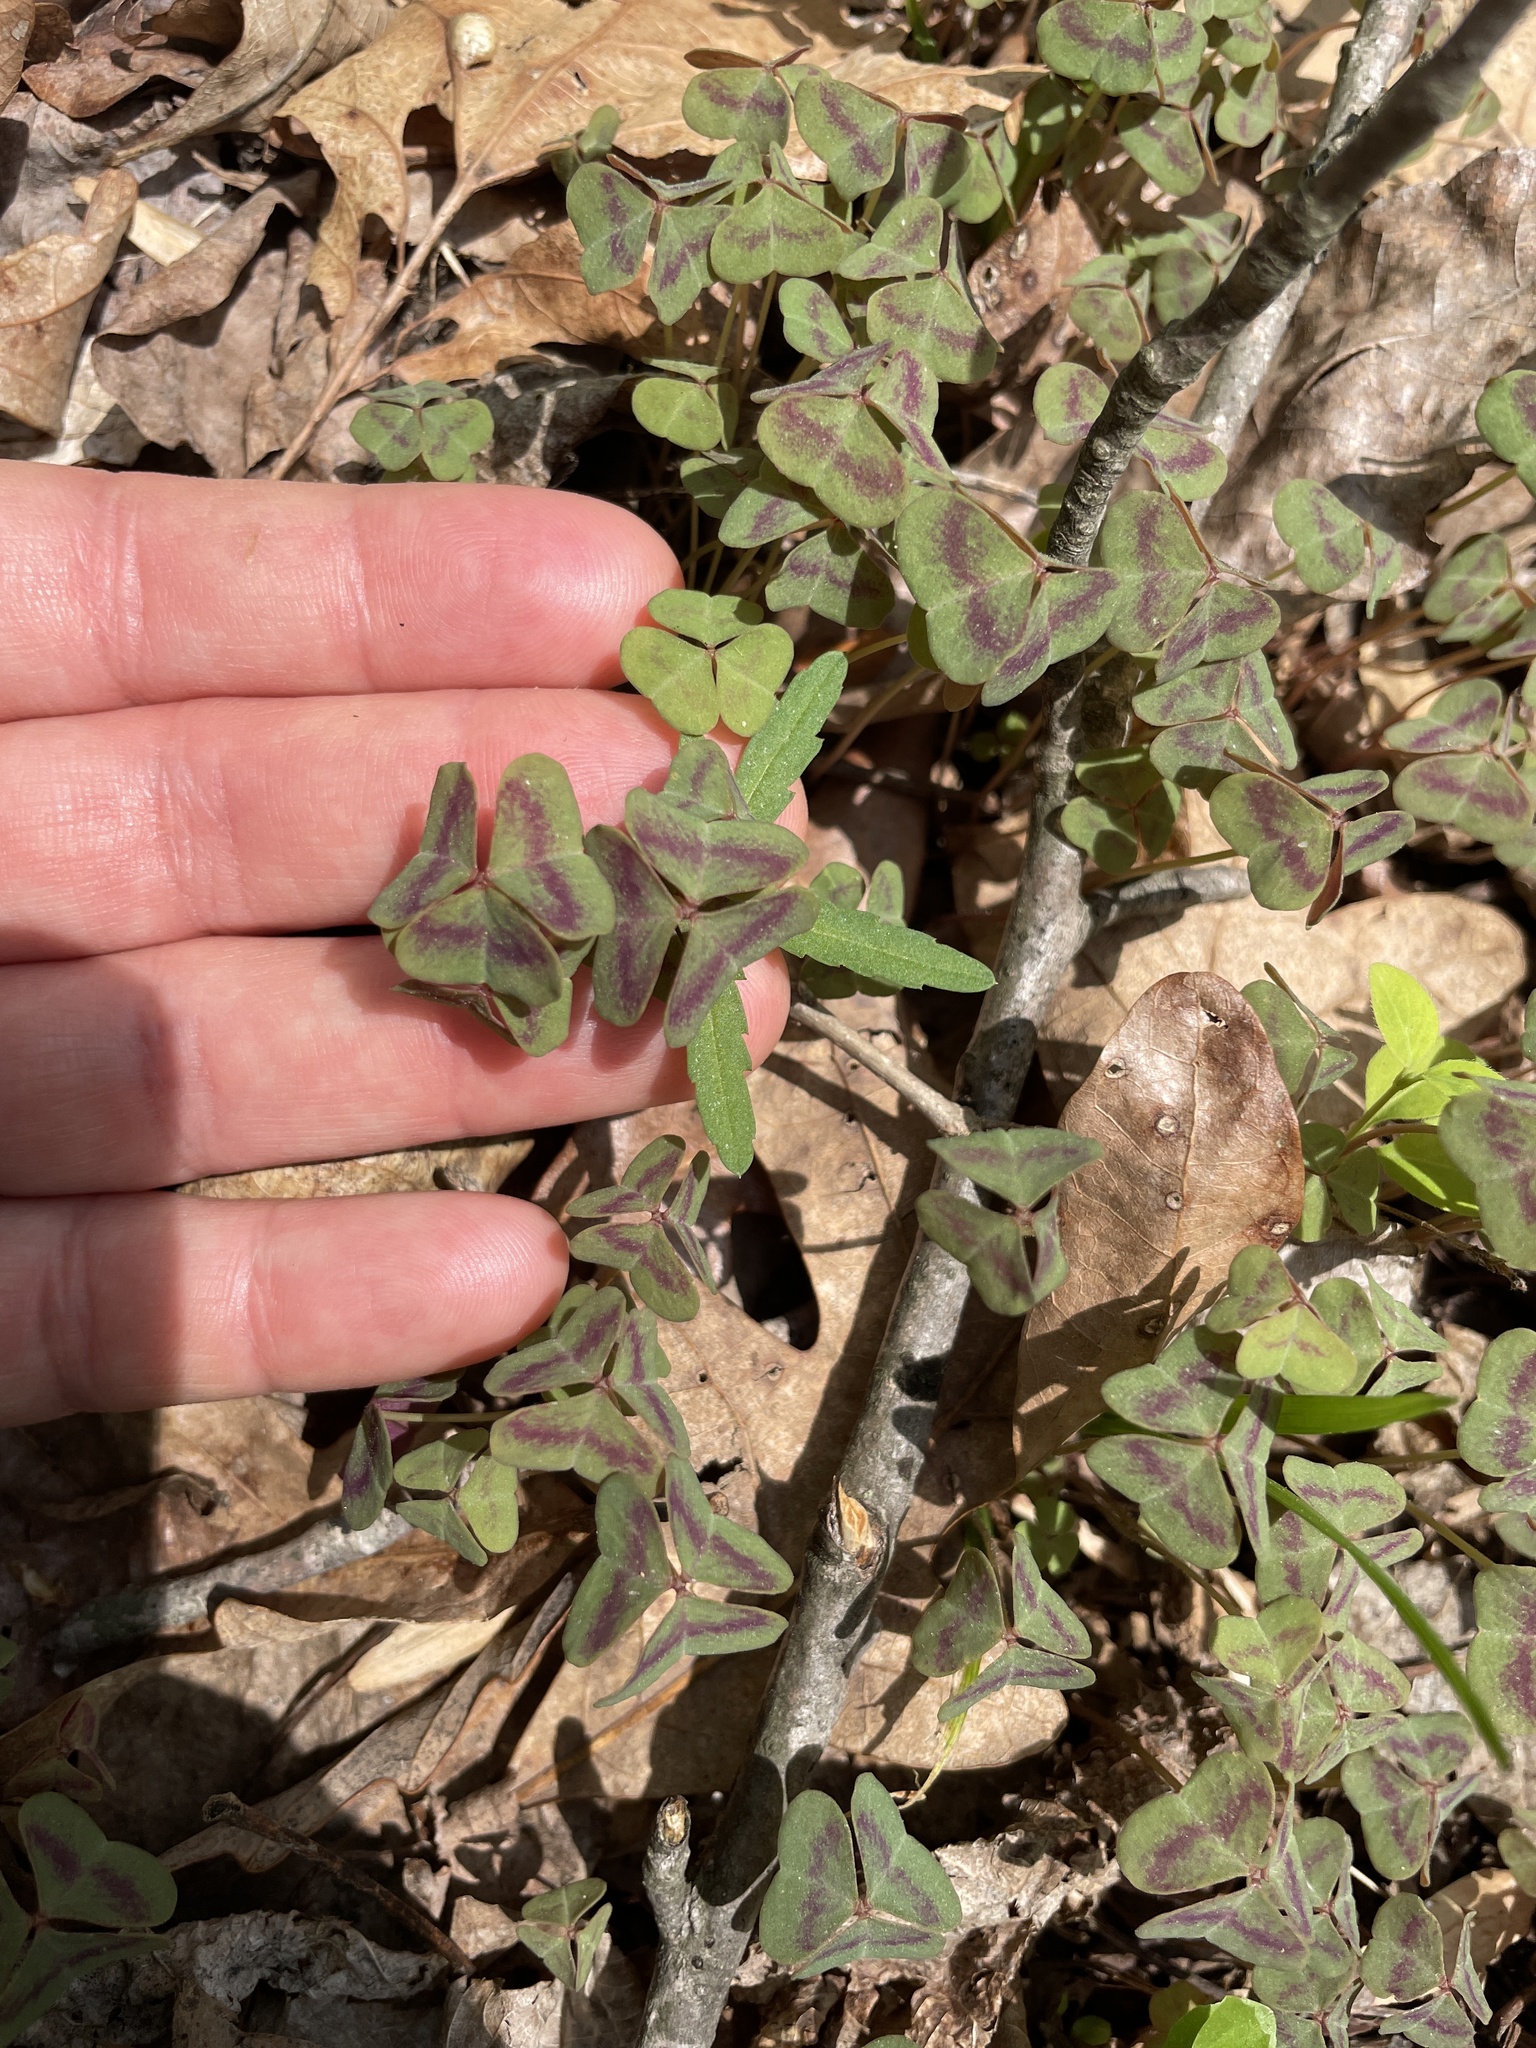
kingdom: Plantae
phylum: Tracheophyta
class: Magnoliopsida
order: Oxalidales
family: Oxalidaceae
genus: Oxalis
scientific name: Oxalis violacea
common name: Violet wood-sorrel
